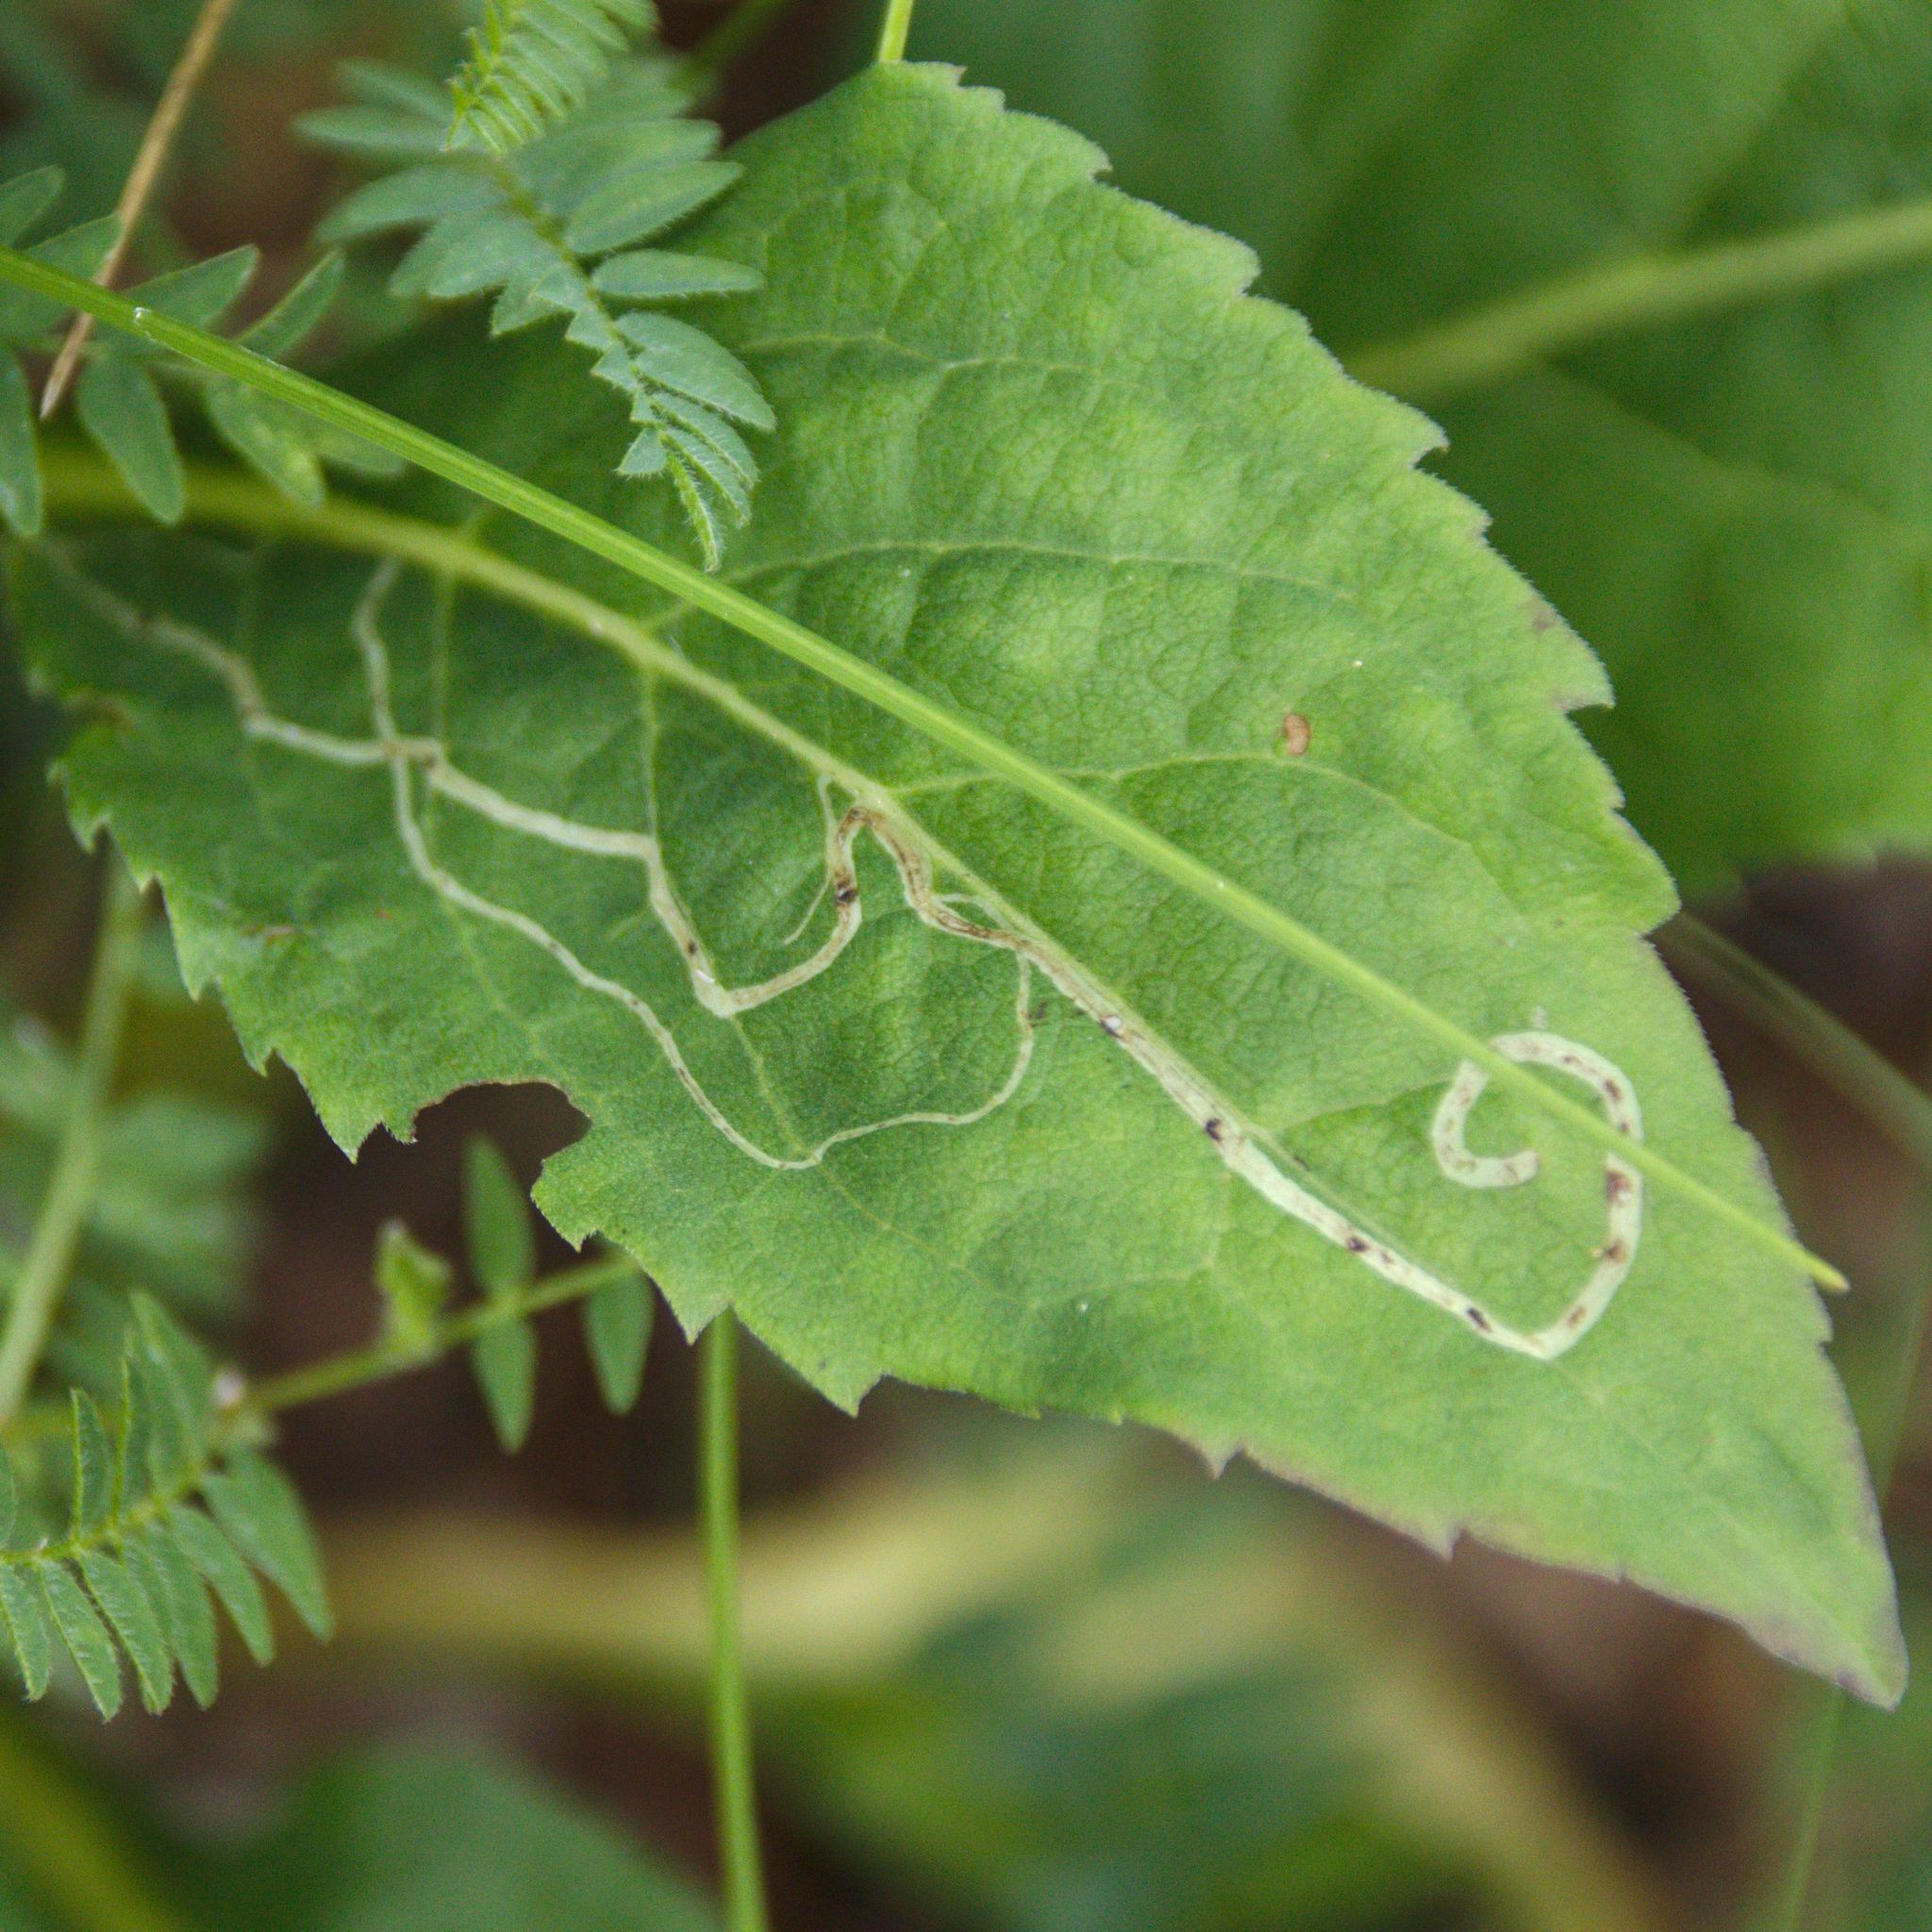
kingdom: Plantae
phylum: Tracheophyta
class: Magnoliopsida
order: Asterales
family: Asteraceae
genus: Solidago
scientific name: Solidago virgaurea
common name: Goldenrod
